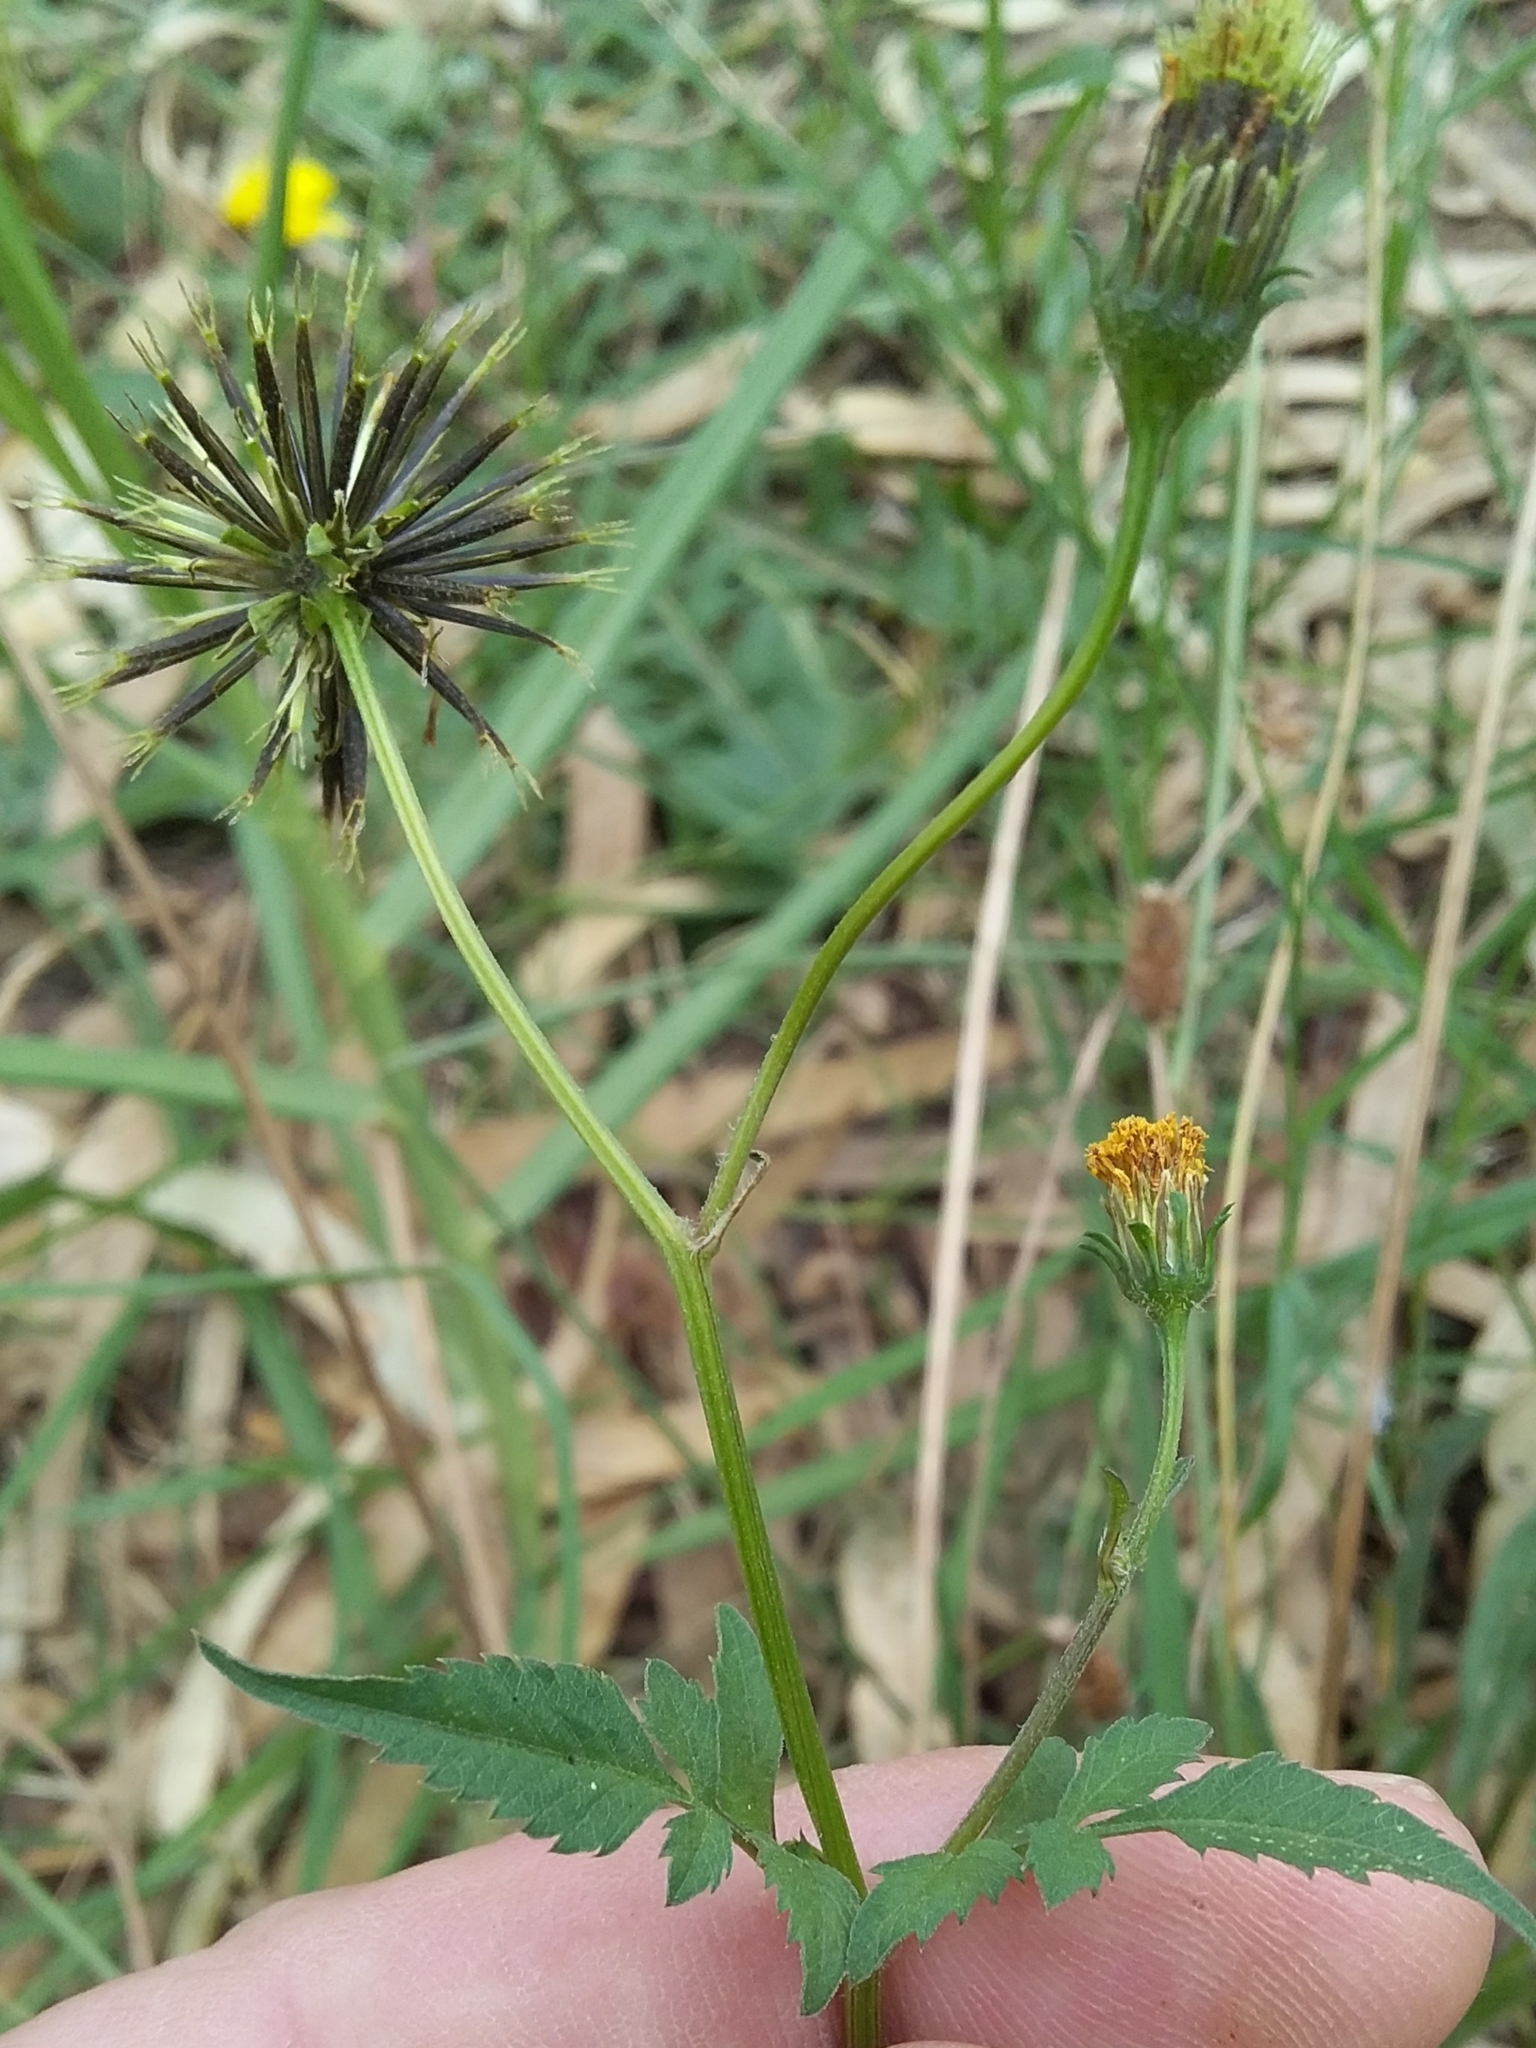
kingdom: Plantae
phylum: Tracheophyta
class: Magnoliopsida
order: Asterales
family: Asteraceae
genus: Bidens
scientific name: Bidens pilosa
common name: Black-jack
